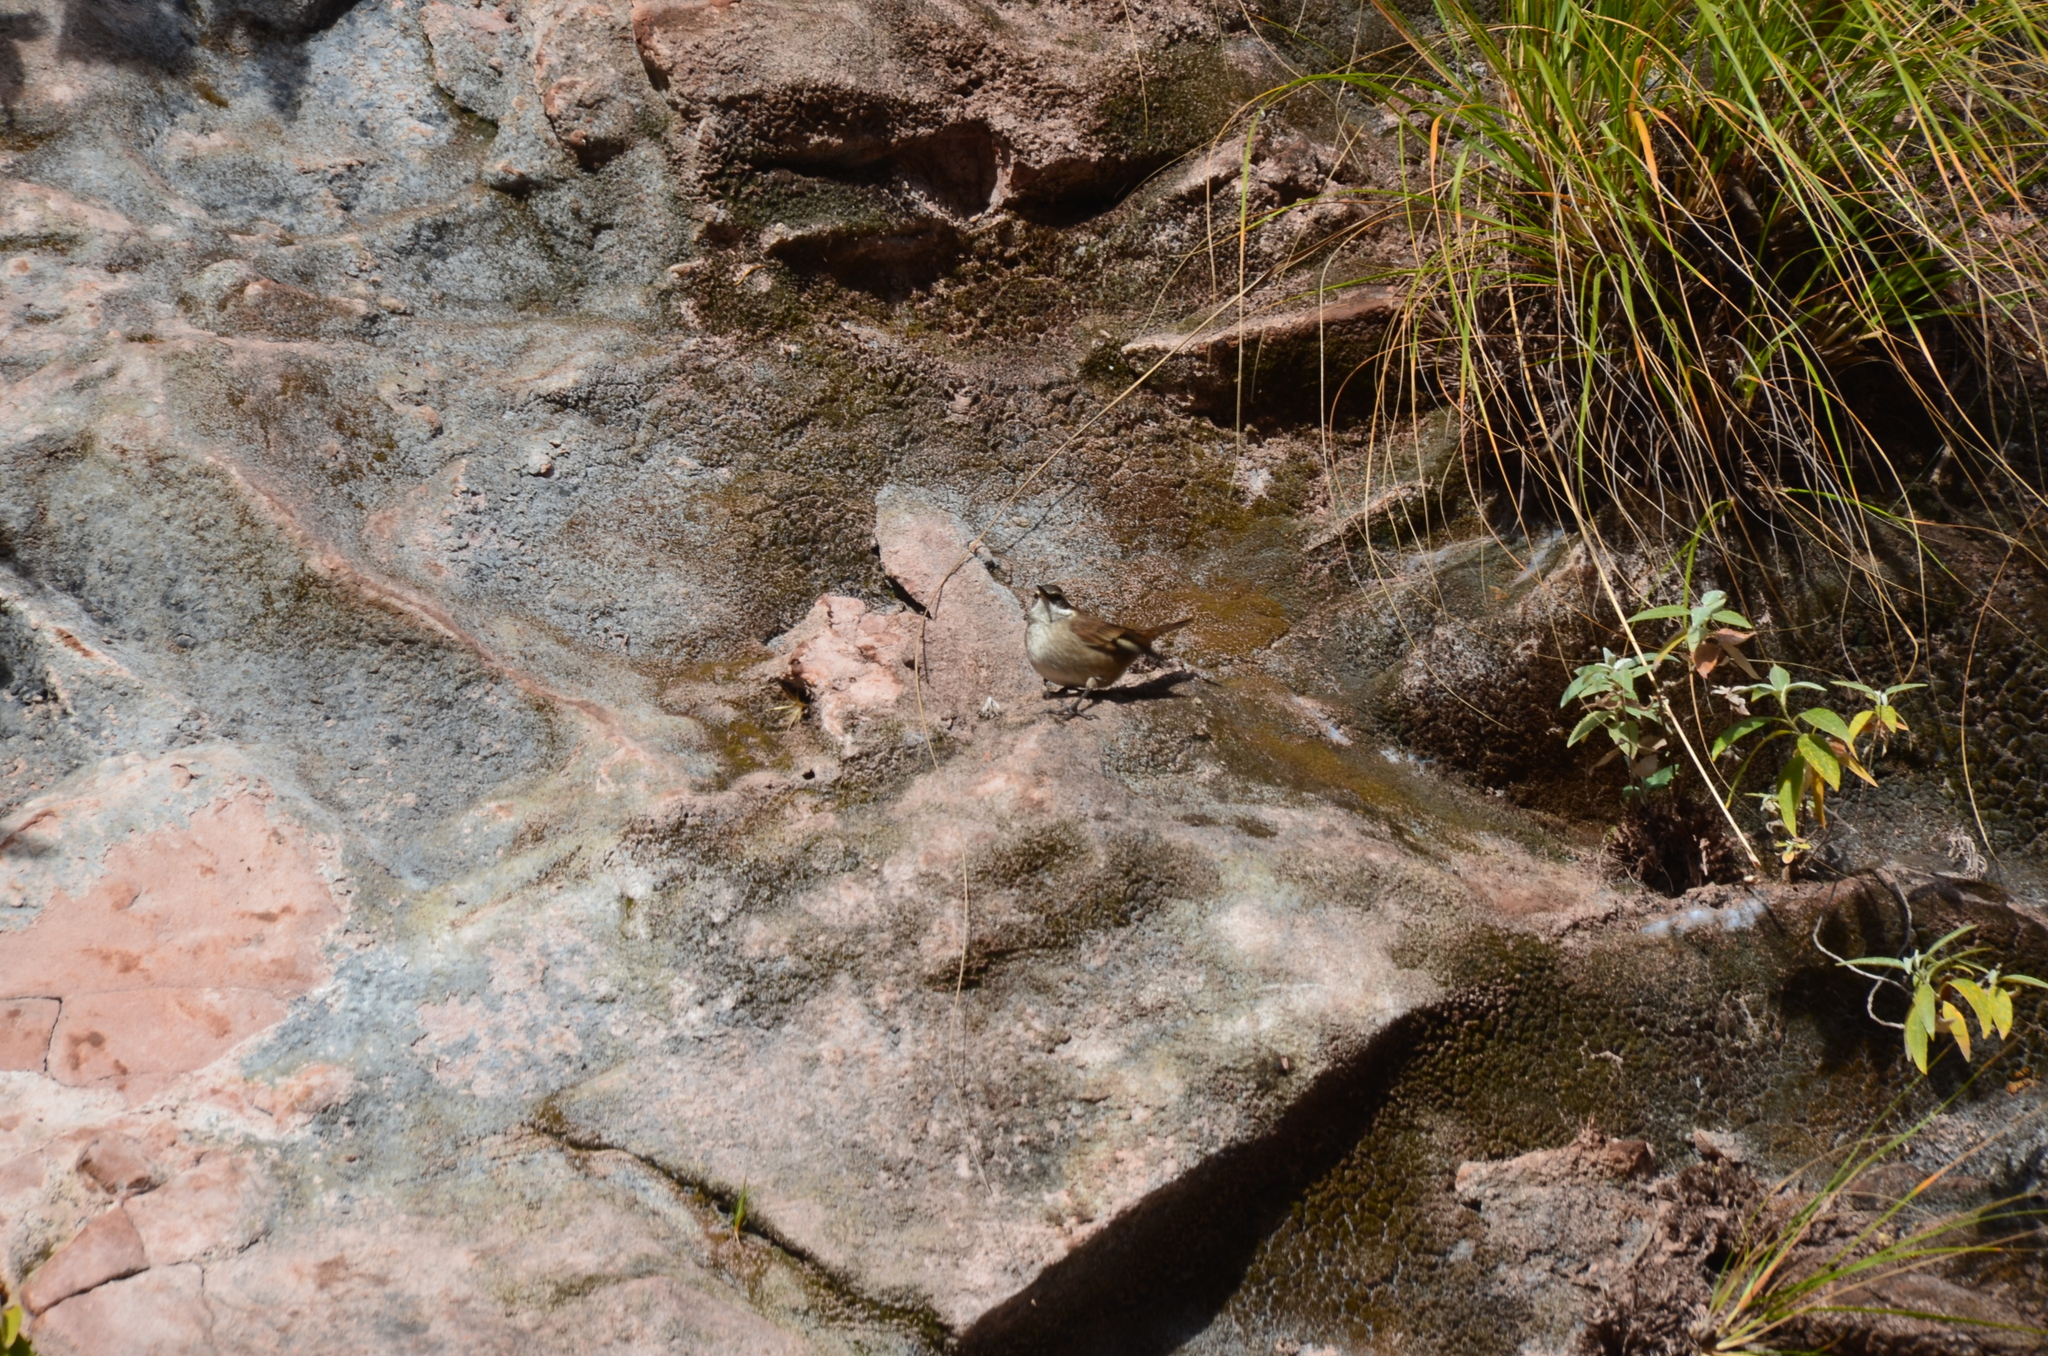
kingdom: Animalia
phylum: Chordata
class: Aves
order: Passeriformes
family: Furnariidae
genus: Cinclodes
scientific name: Cinclodes fuscus
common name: Buff-winged cinclodes
